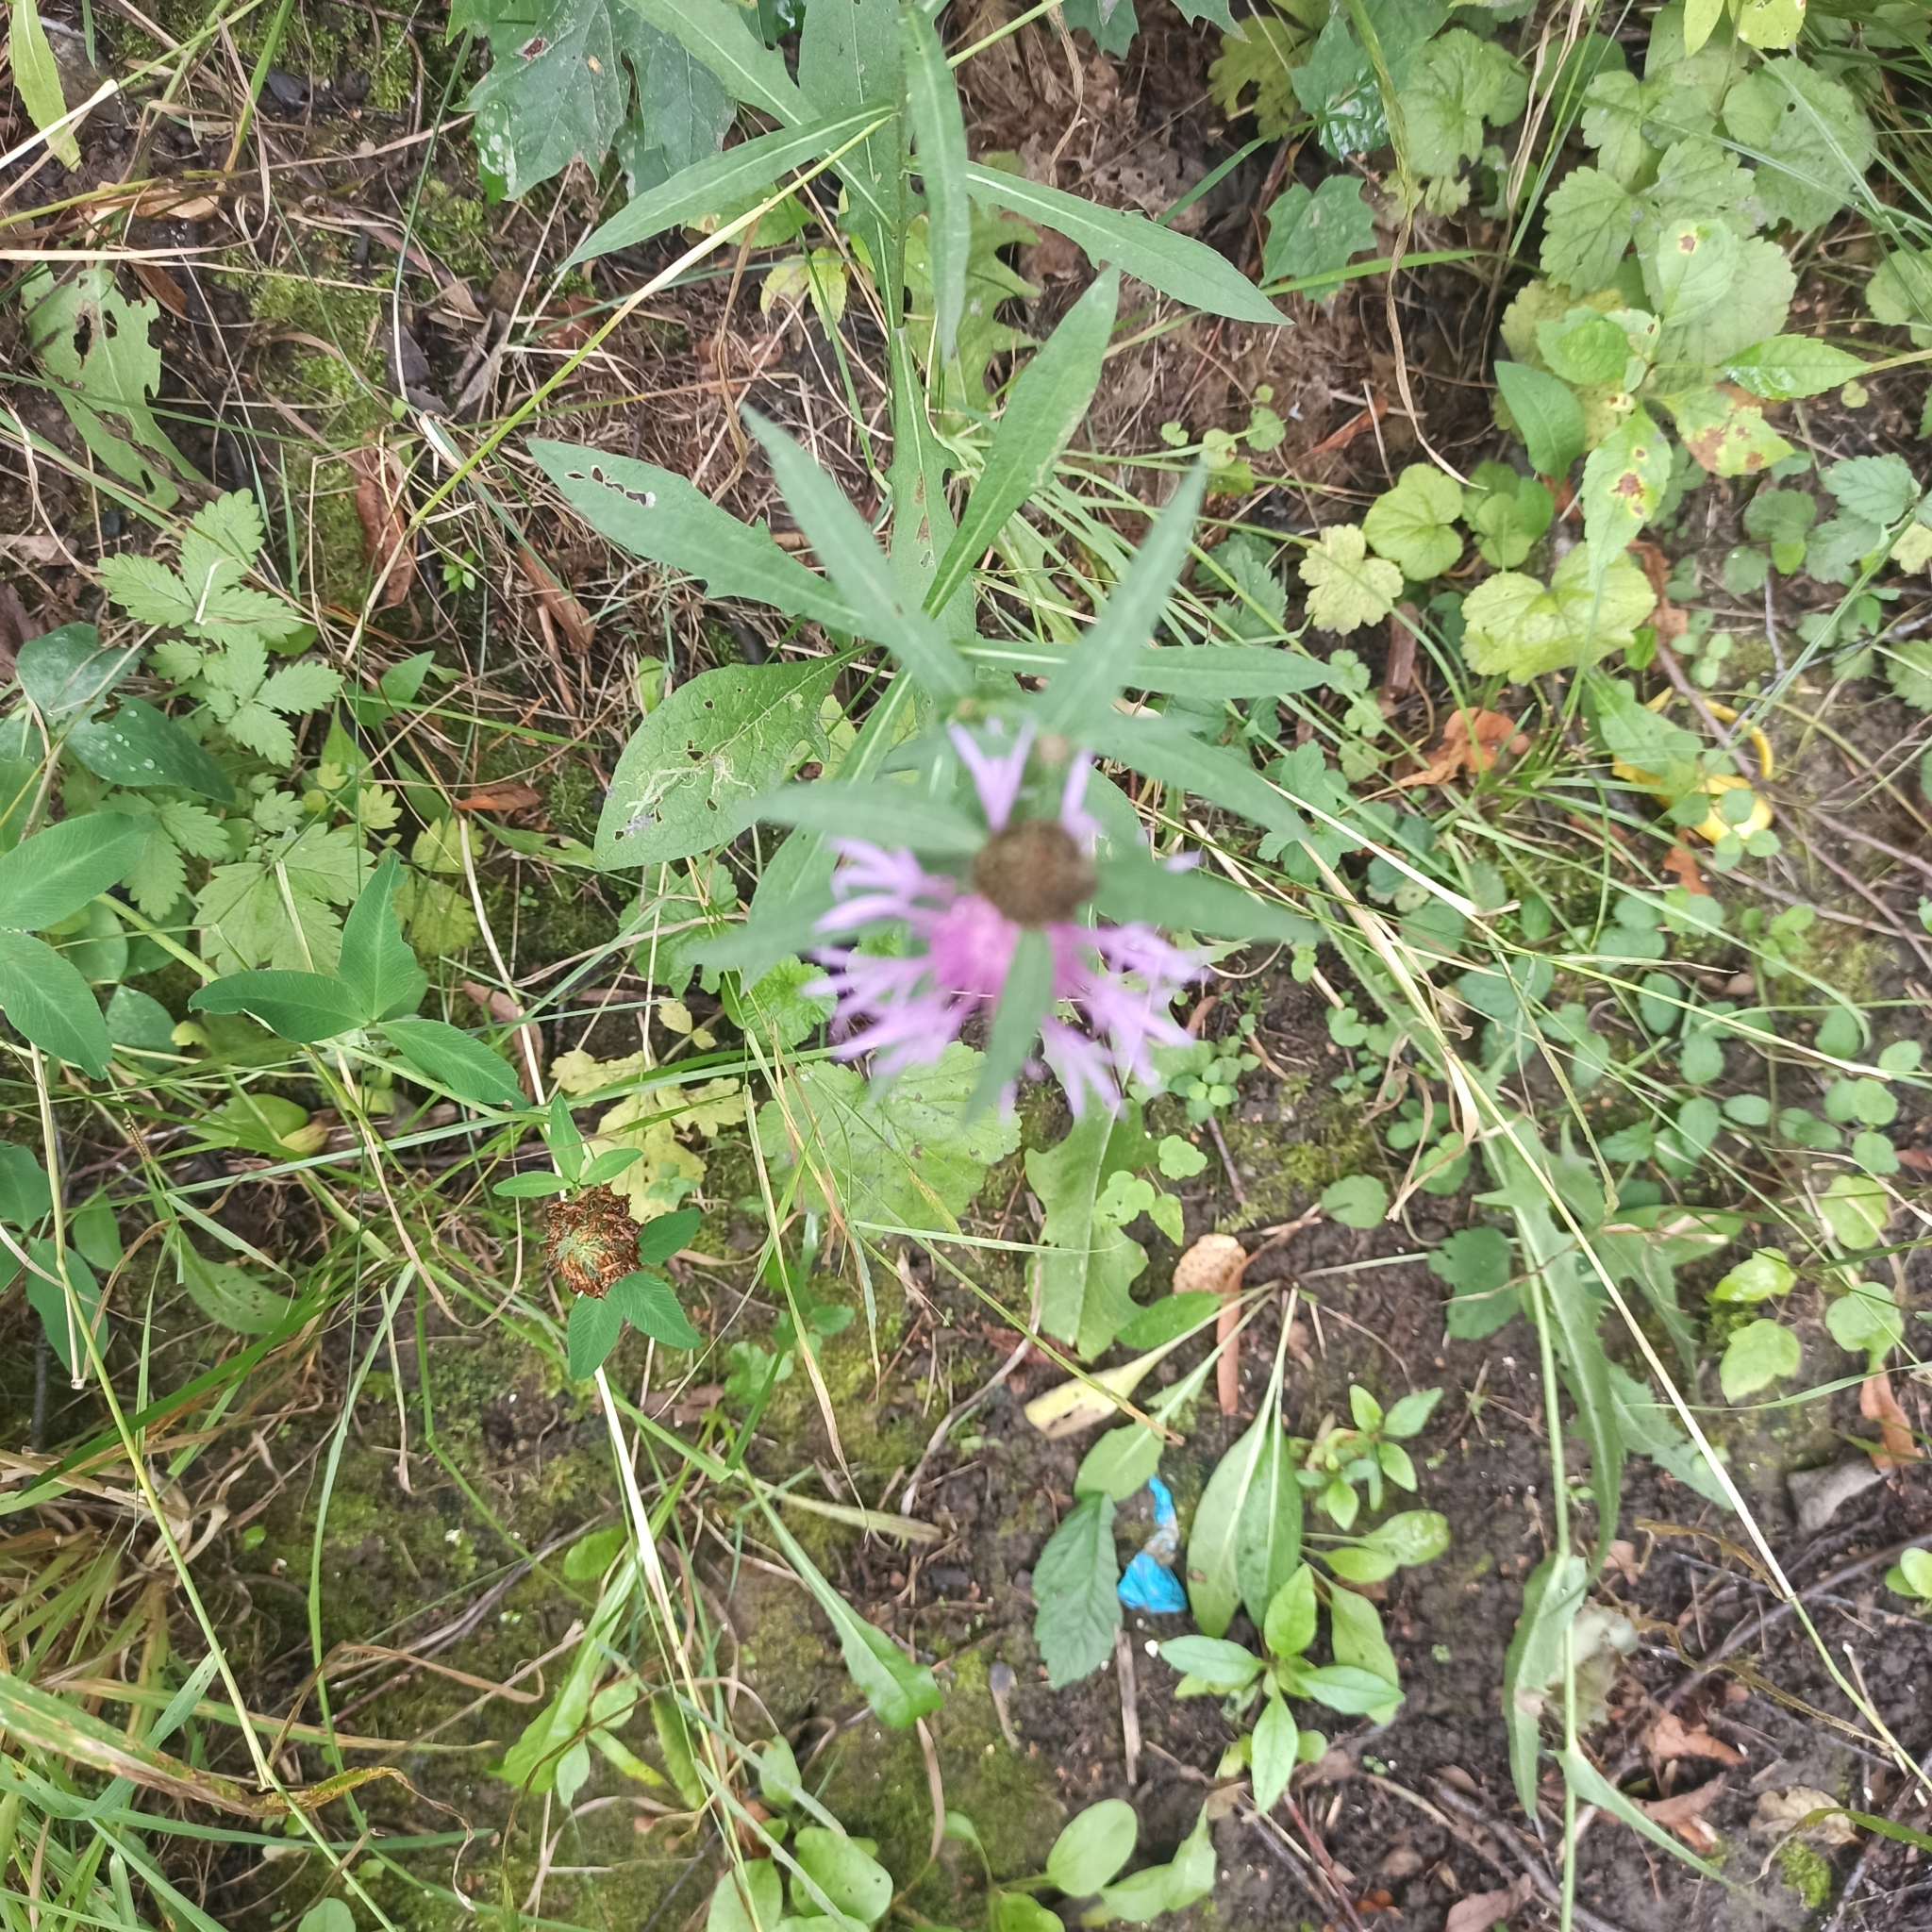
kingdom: Plantae
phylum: Tracheophyta
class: Magnoliopsida
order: Asterales
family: Asteraceae
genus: Centaurea
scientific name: Centaurea jacea
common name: Brown knapweed
